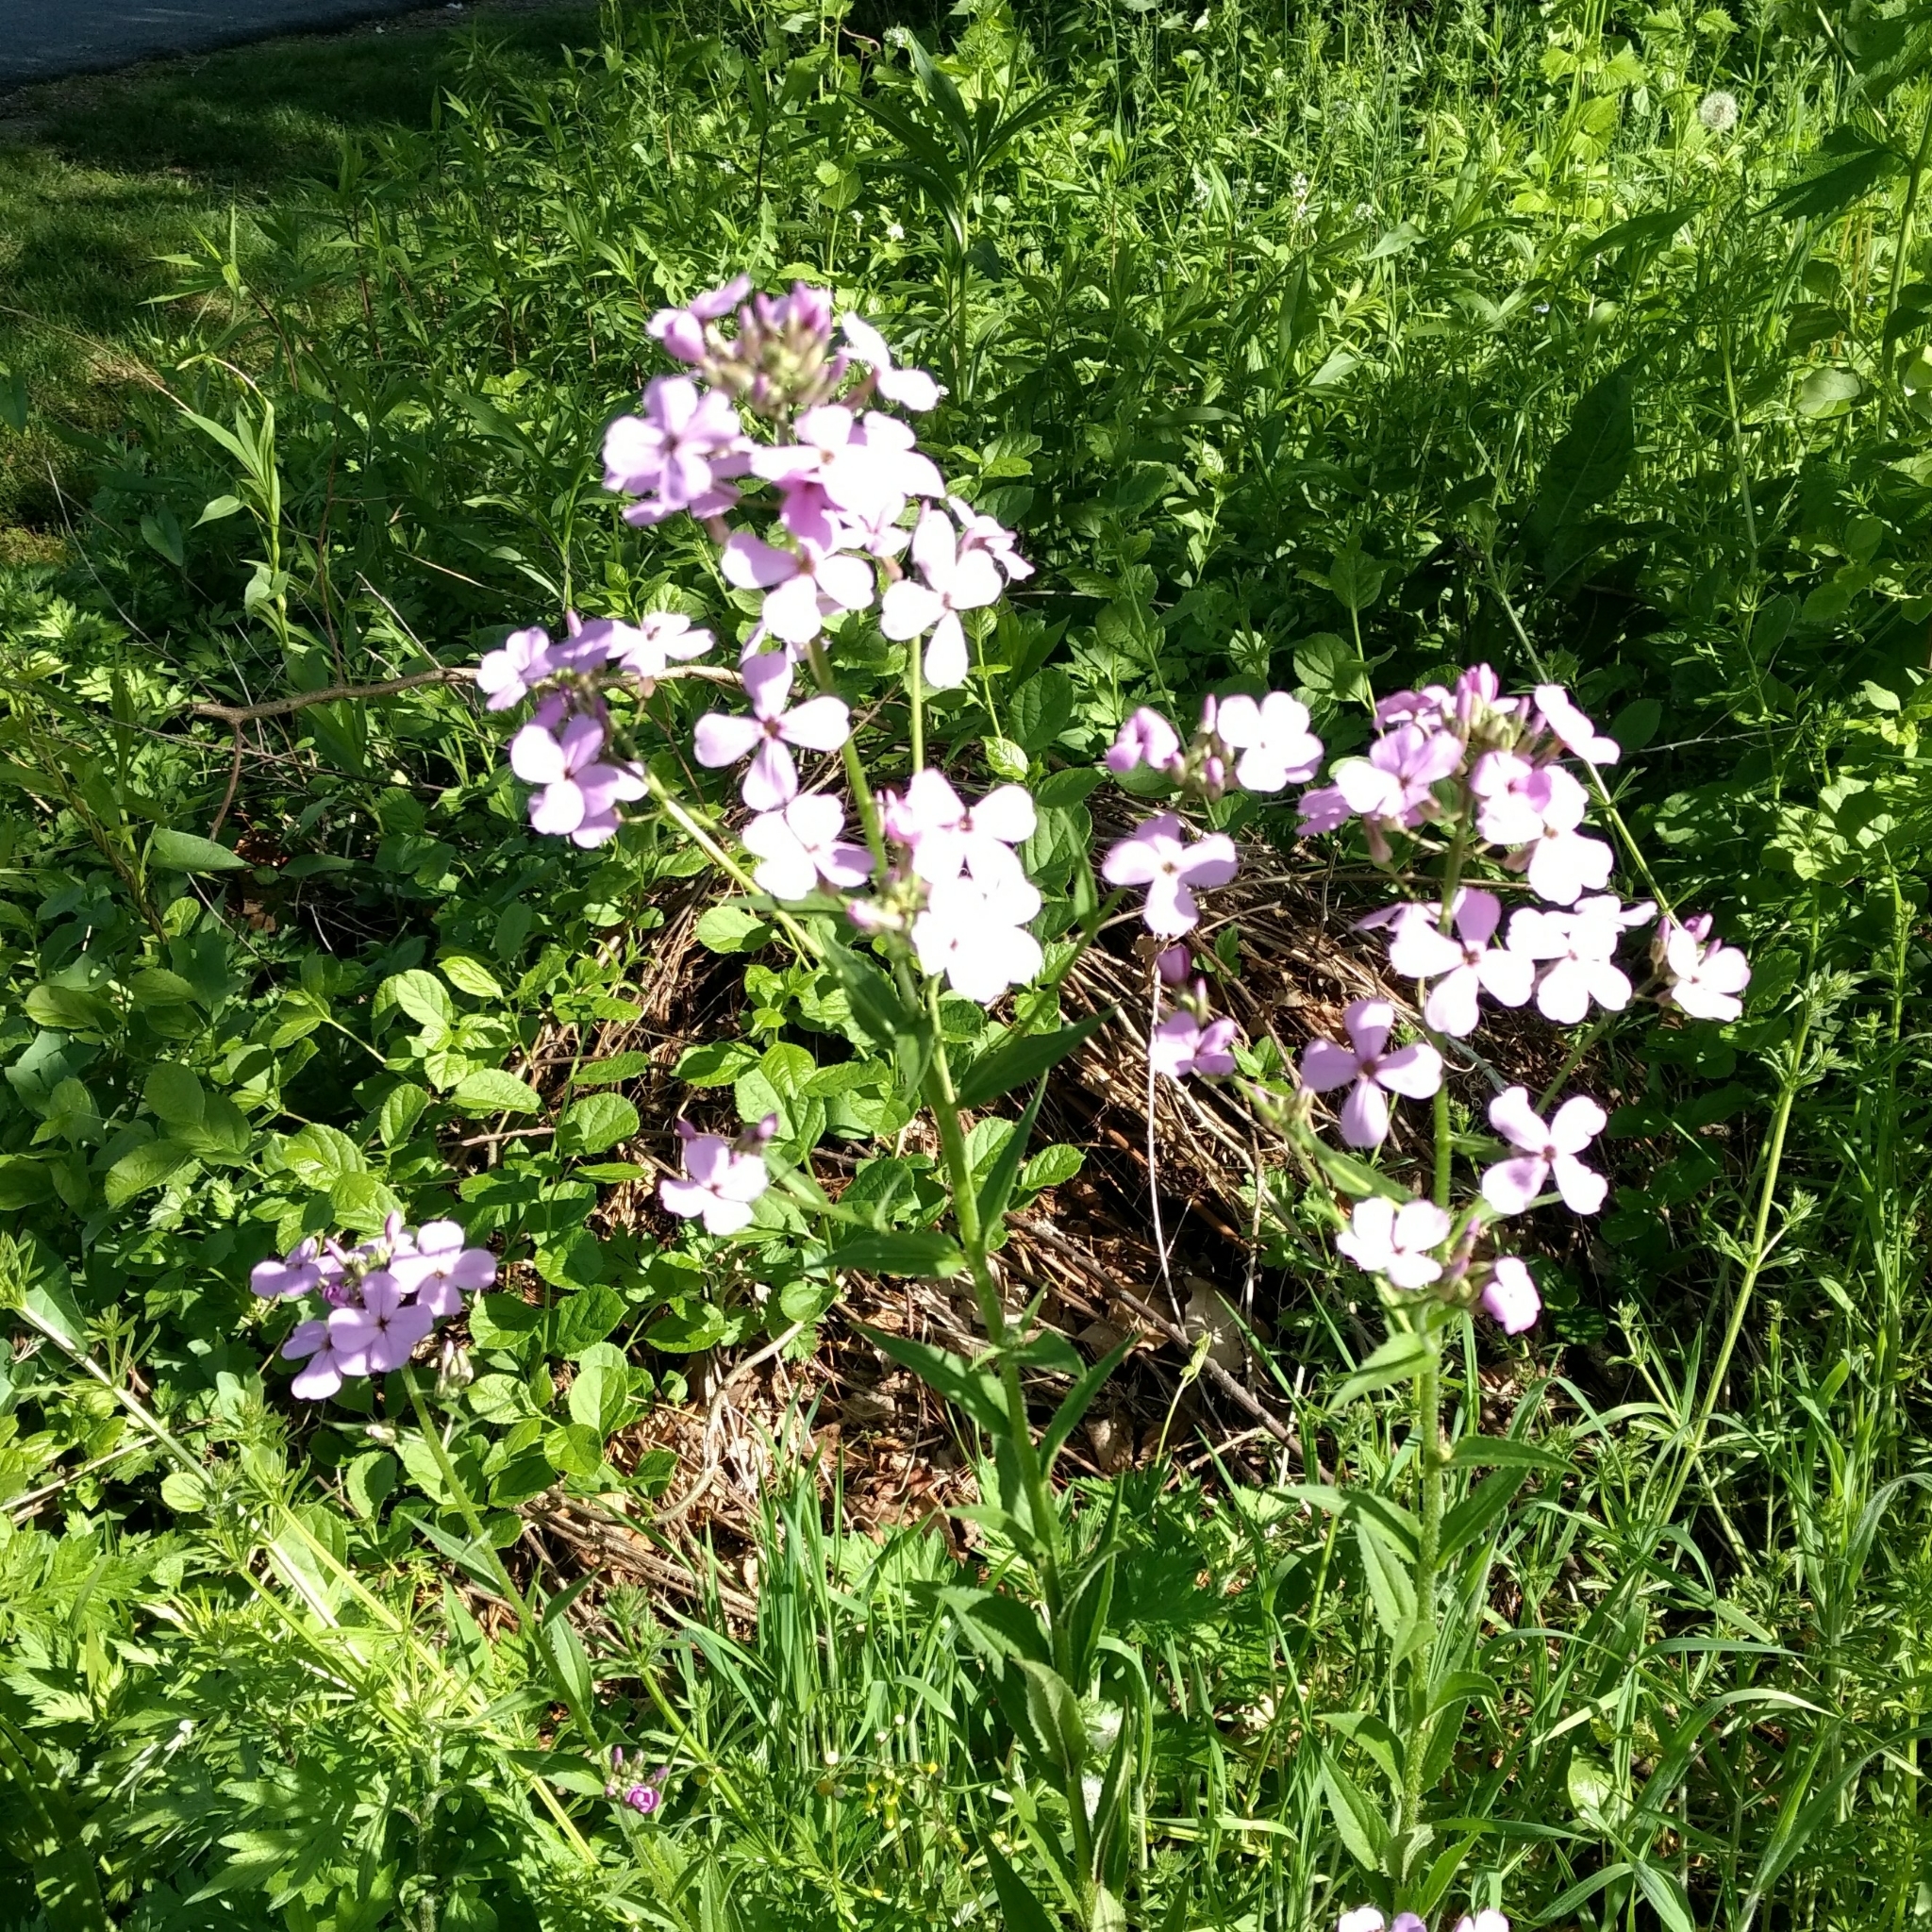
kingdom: Plantae
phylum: Tracheophyta
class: Magnoliopsida
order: Brassicales
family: Brassicaceae
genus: Hesperis
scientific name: Hesperis matronalis
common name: Dame's-violet
